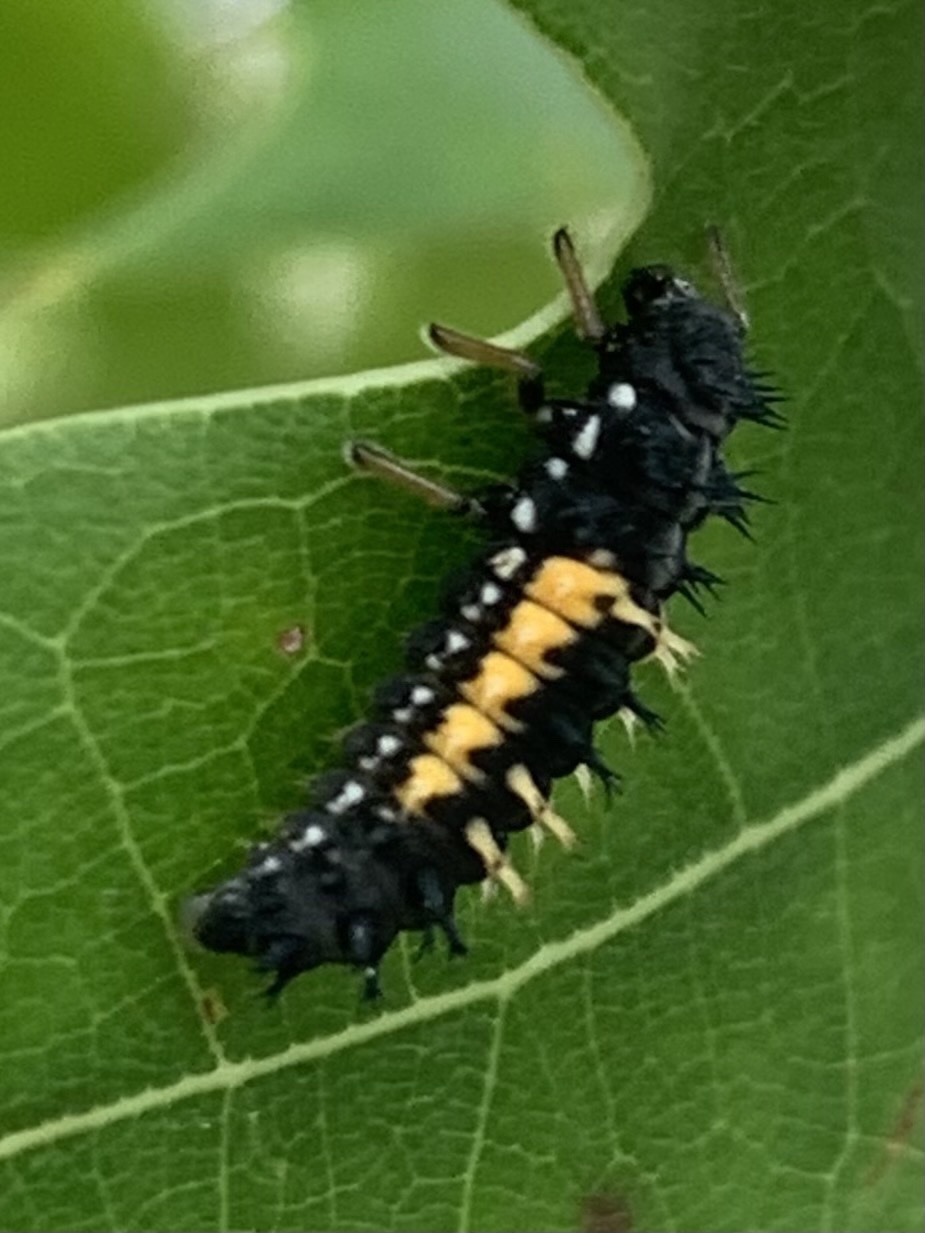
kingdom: Animalia
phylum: Arthropoda
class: Insecta
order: Coleoptera
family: Coccinellidae
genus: Harmonia
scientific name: Harmonia axyridis
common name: Harlequin ladybird
